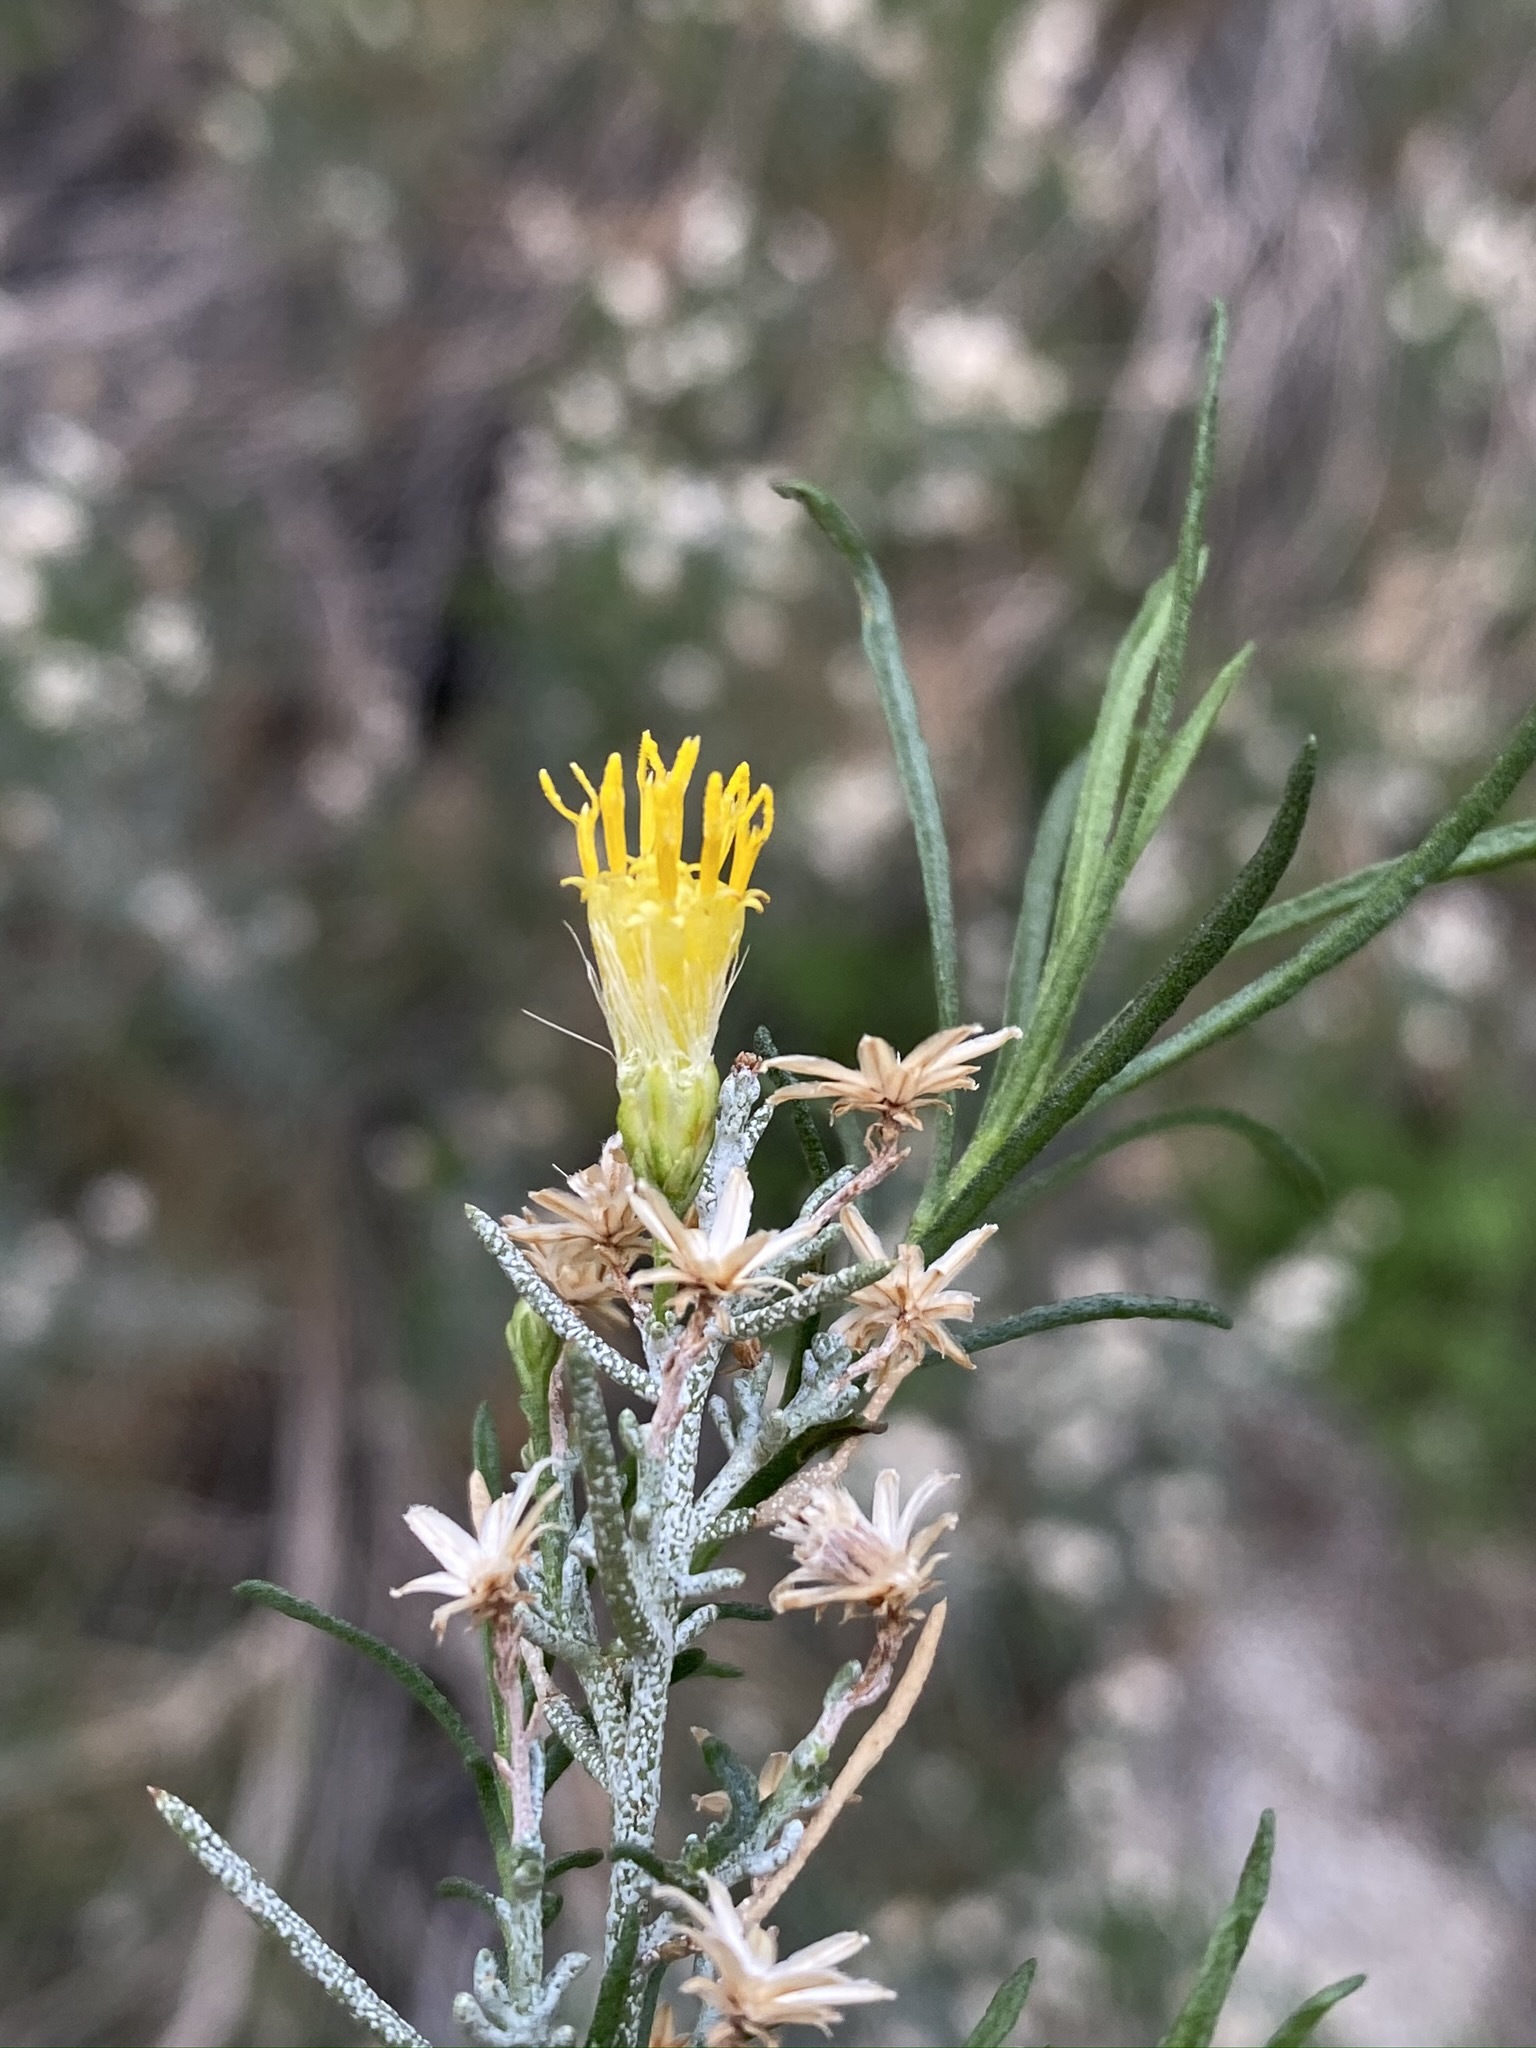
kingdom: Plantae
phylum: Tracheophyta
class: Magnoliopsida
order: Asterales
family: Asteraceae
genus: Ericameria
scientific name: Ericameria brachylepis
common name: Boundary goldenbush
